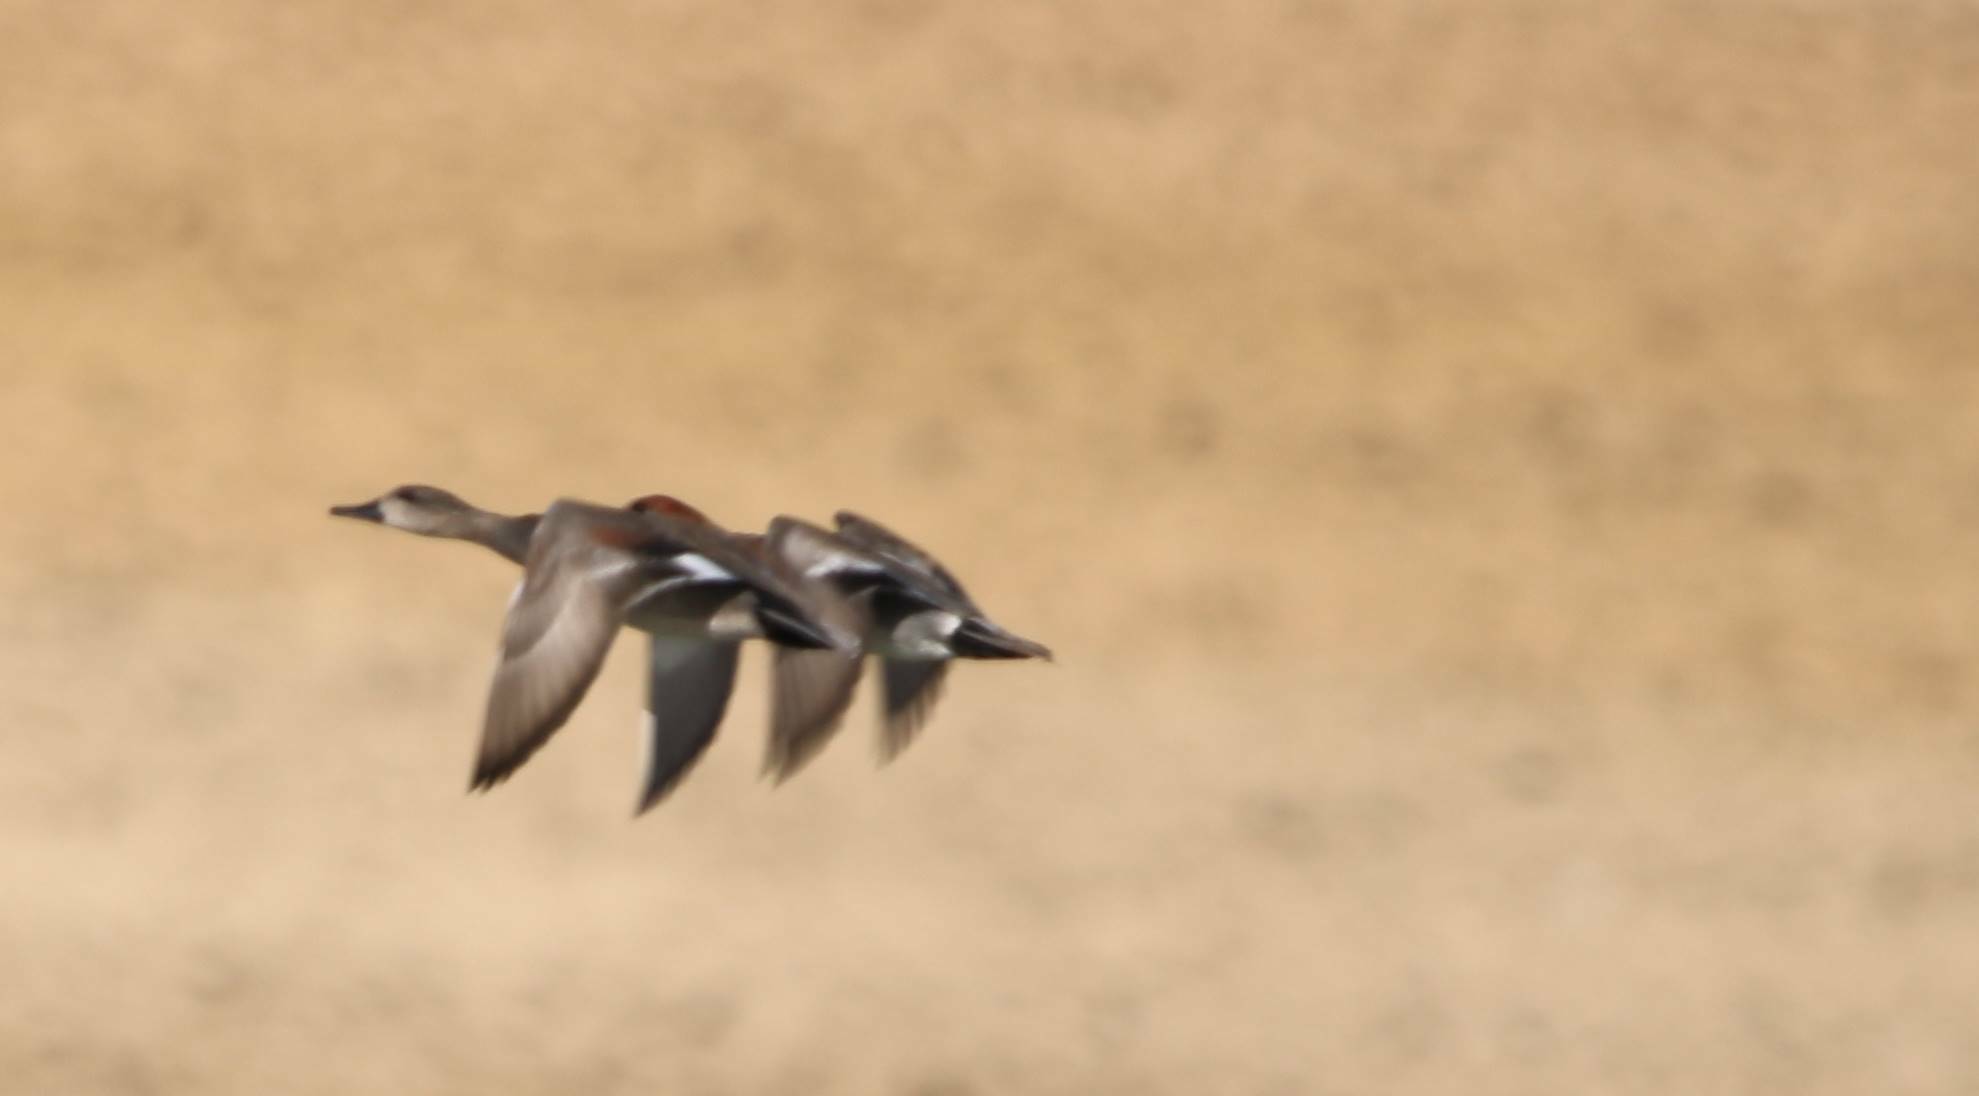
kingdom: Animalia
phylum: Chordata
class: Aves
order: Anseriformes
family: Anatidae
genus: Mareca
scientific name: Mareca penelope
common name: Eurasian wigeon
